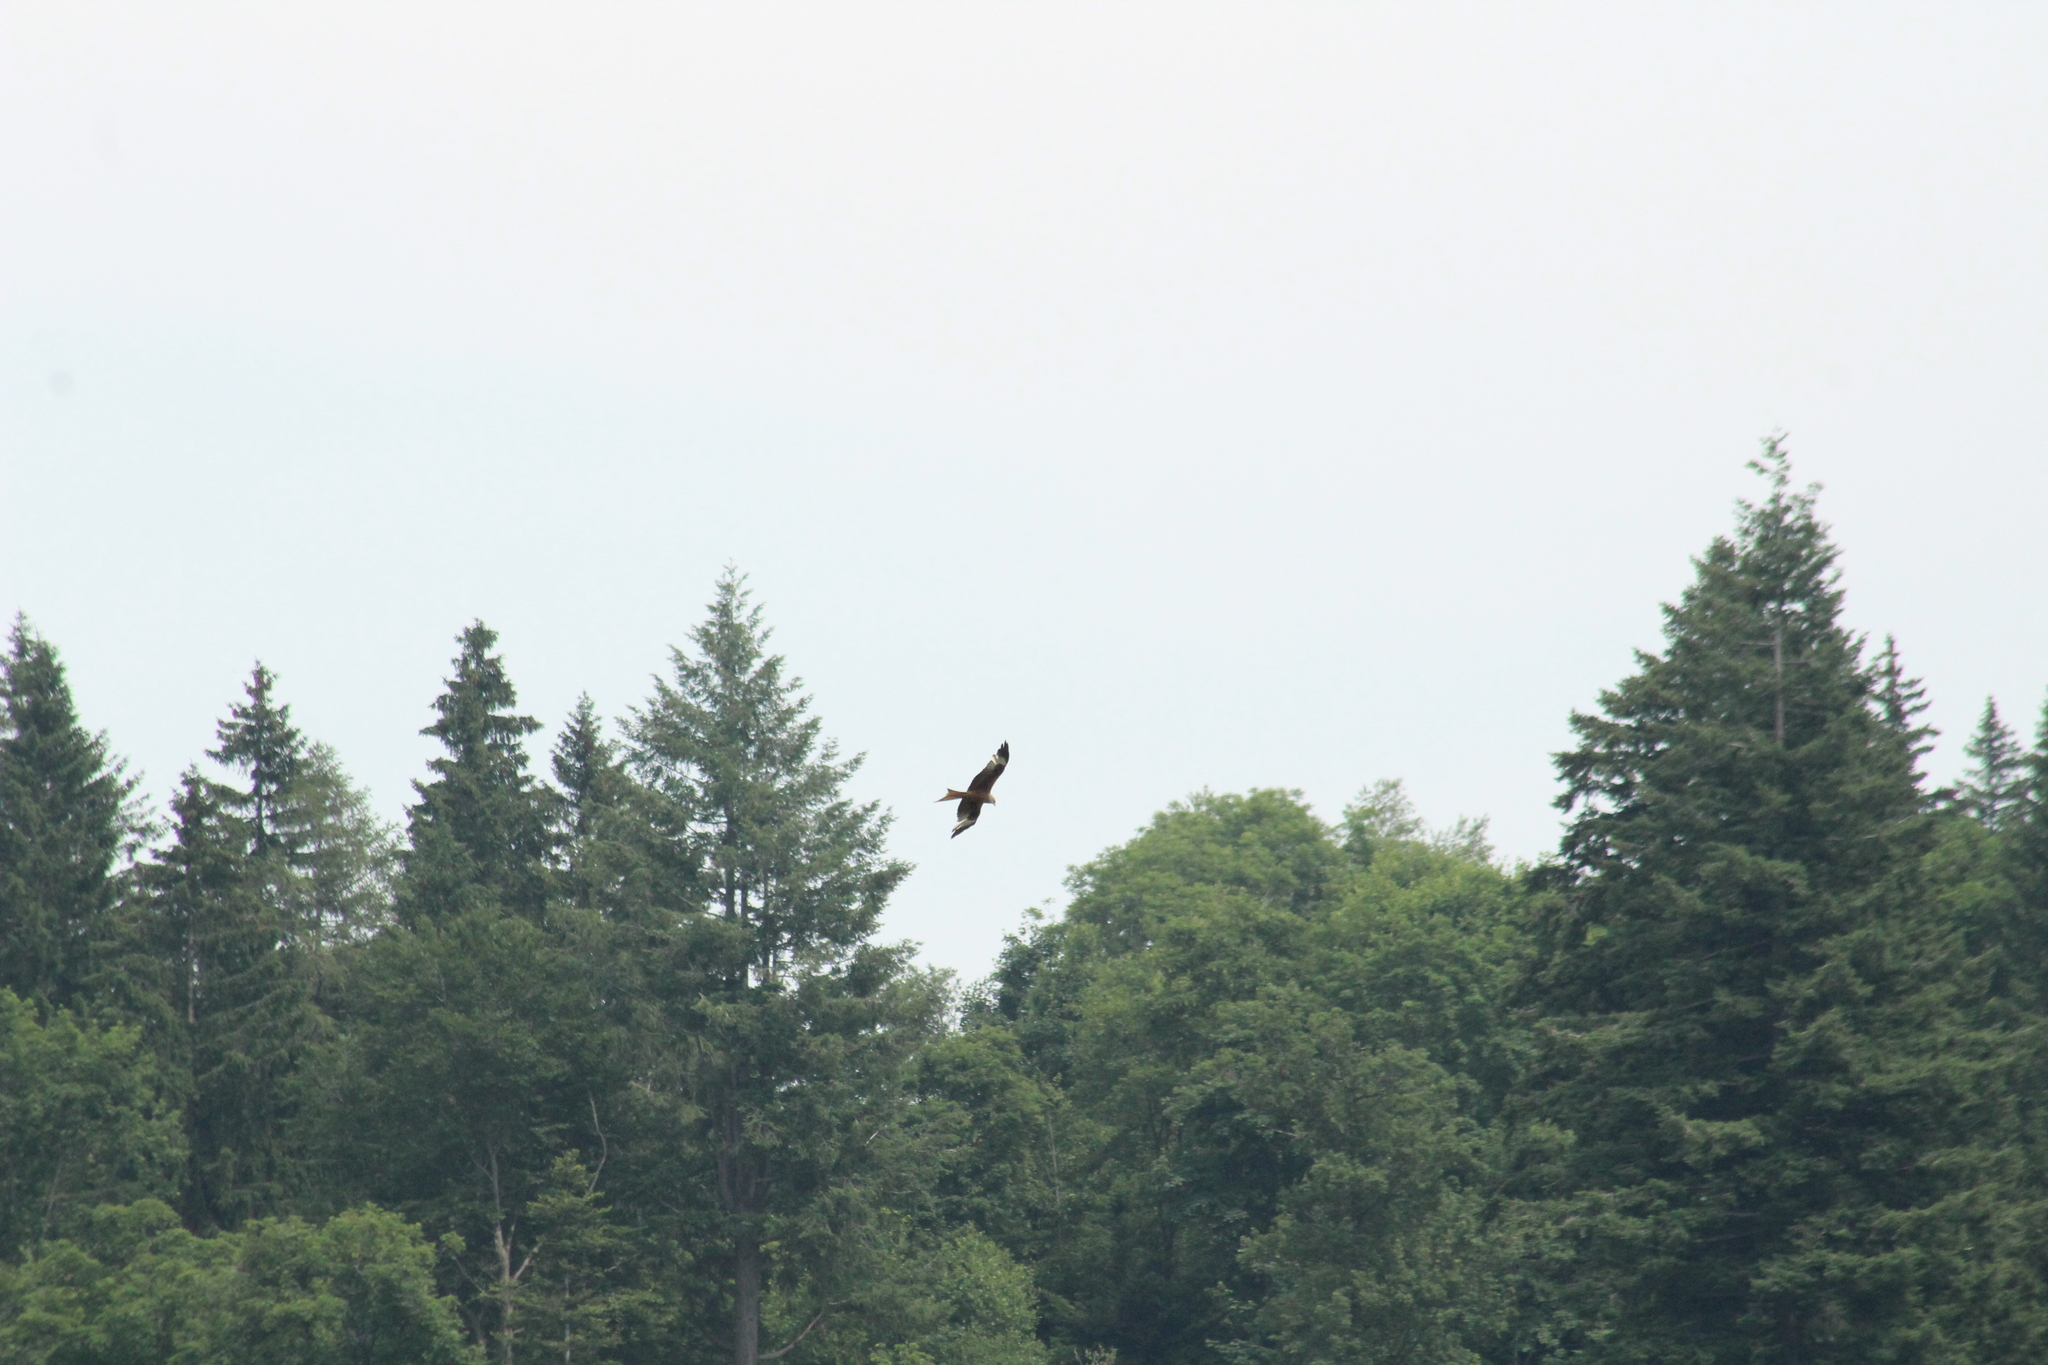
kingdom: Animalia
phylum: Chordata
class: Aves
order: Accipitriformes
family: Accipitridae
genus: Milvus
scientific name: Milvus milvus
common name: Red kite
